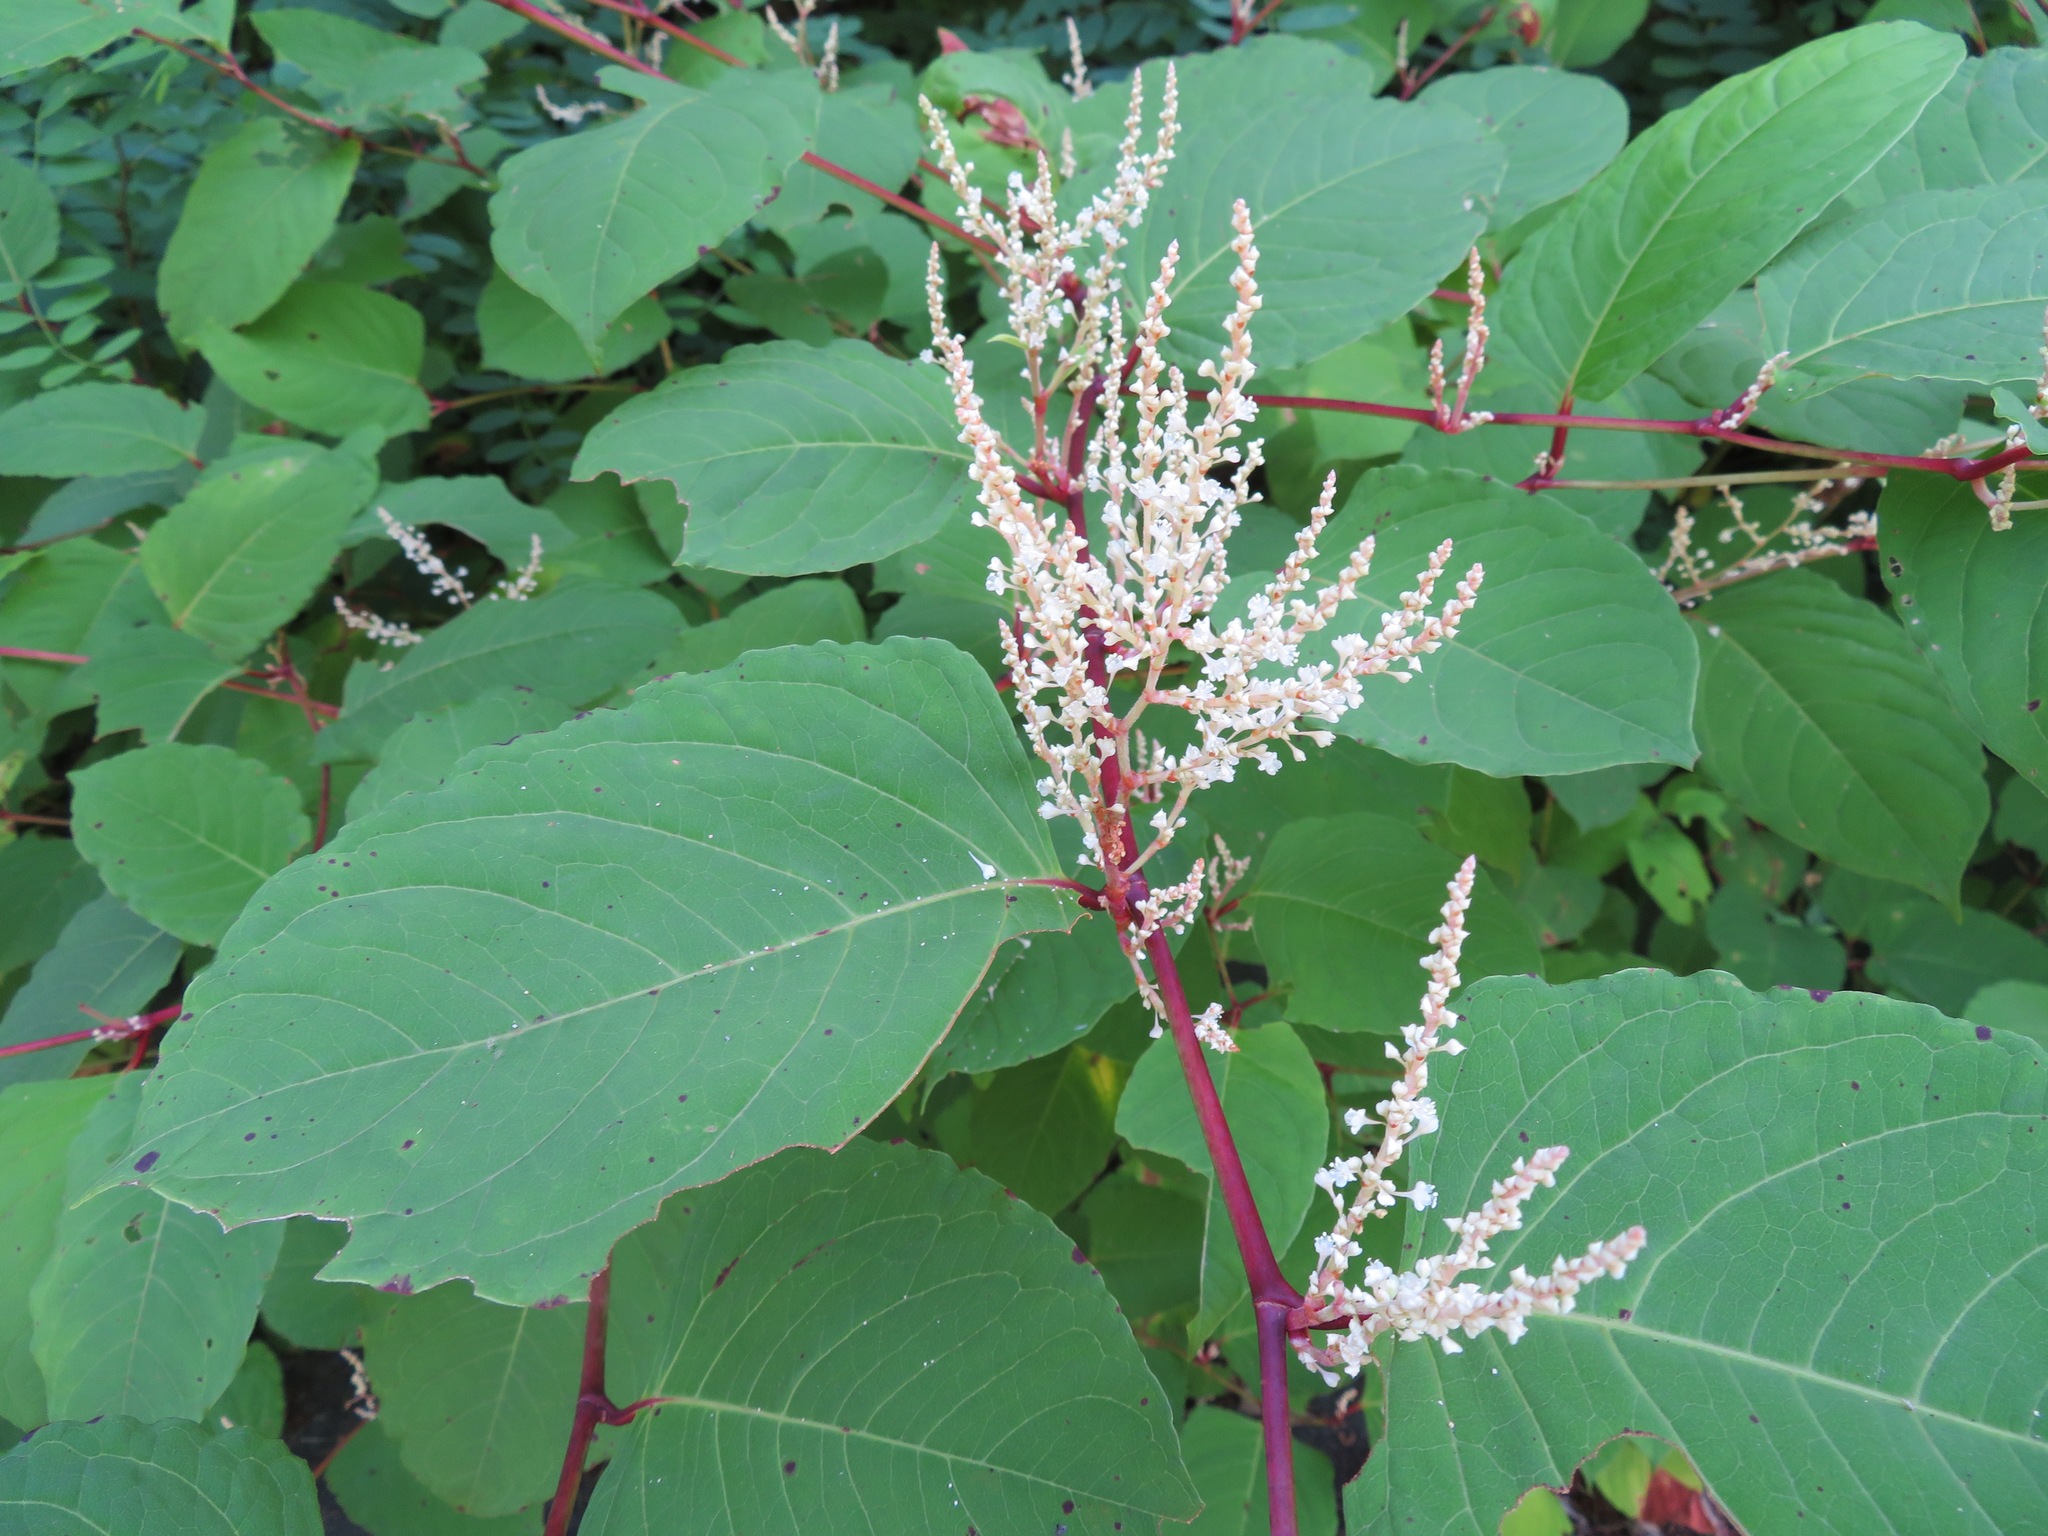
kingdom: Plantae
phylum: Tracheophyta
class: Magnoliopsida
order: Caryophyllales
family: Polygonaceae
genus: Reynoutria
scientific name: Reynoutria japonica
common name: Japanese knotweed
